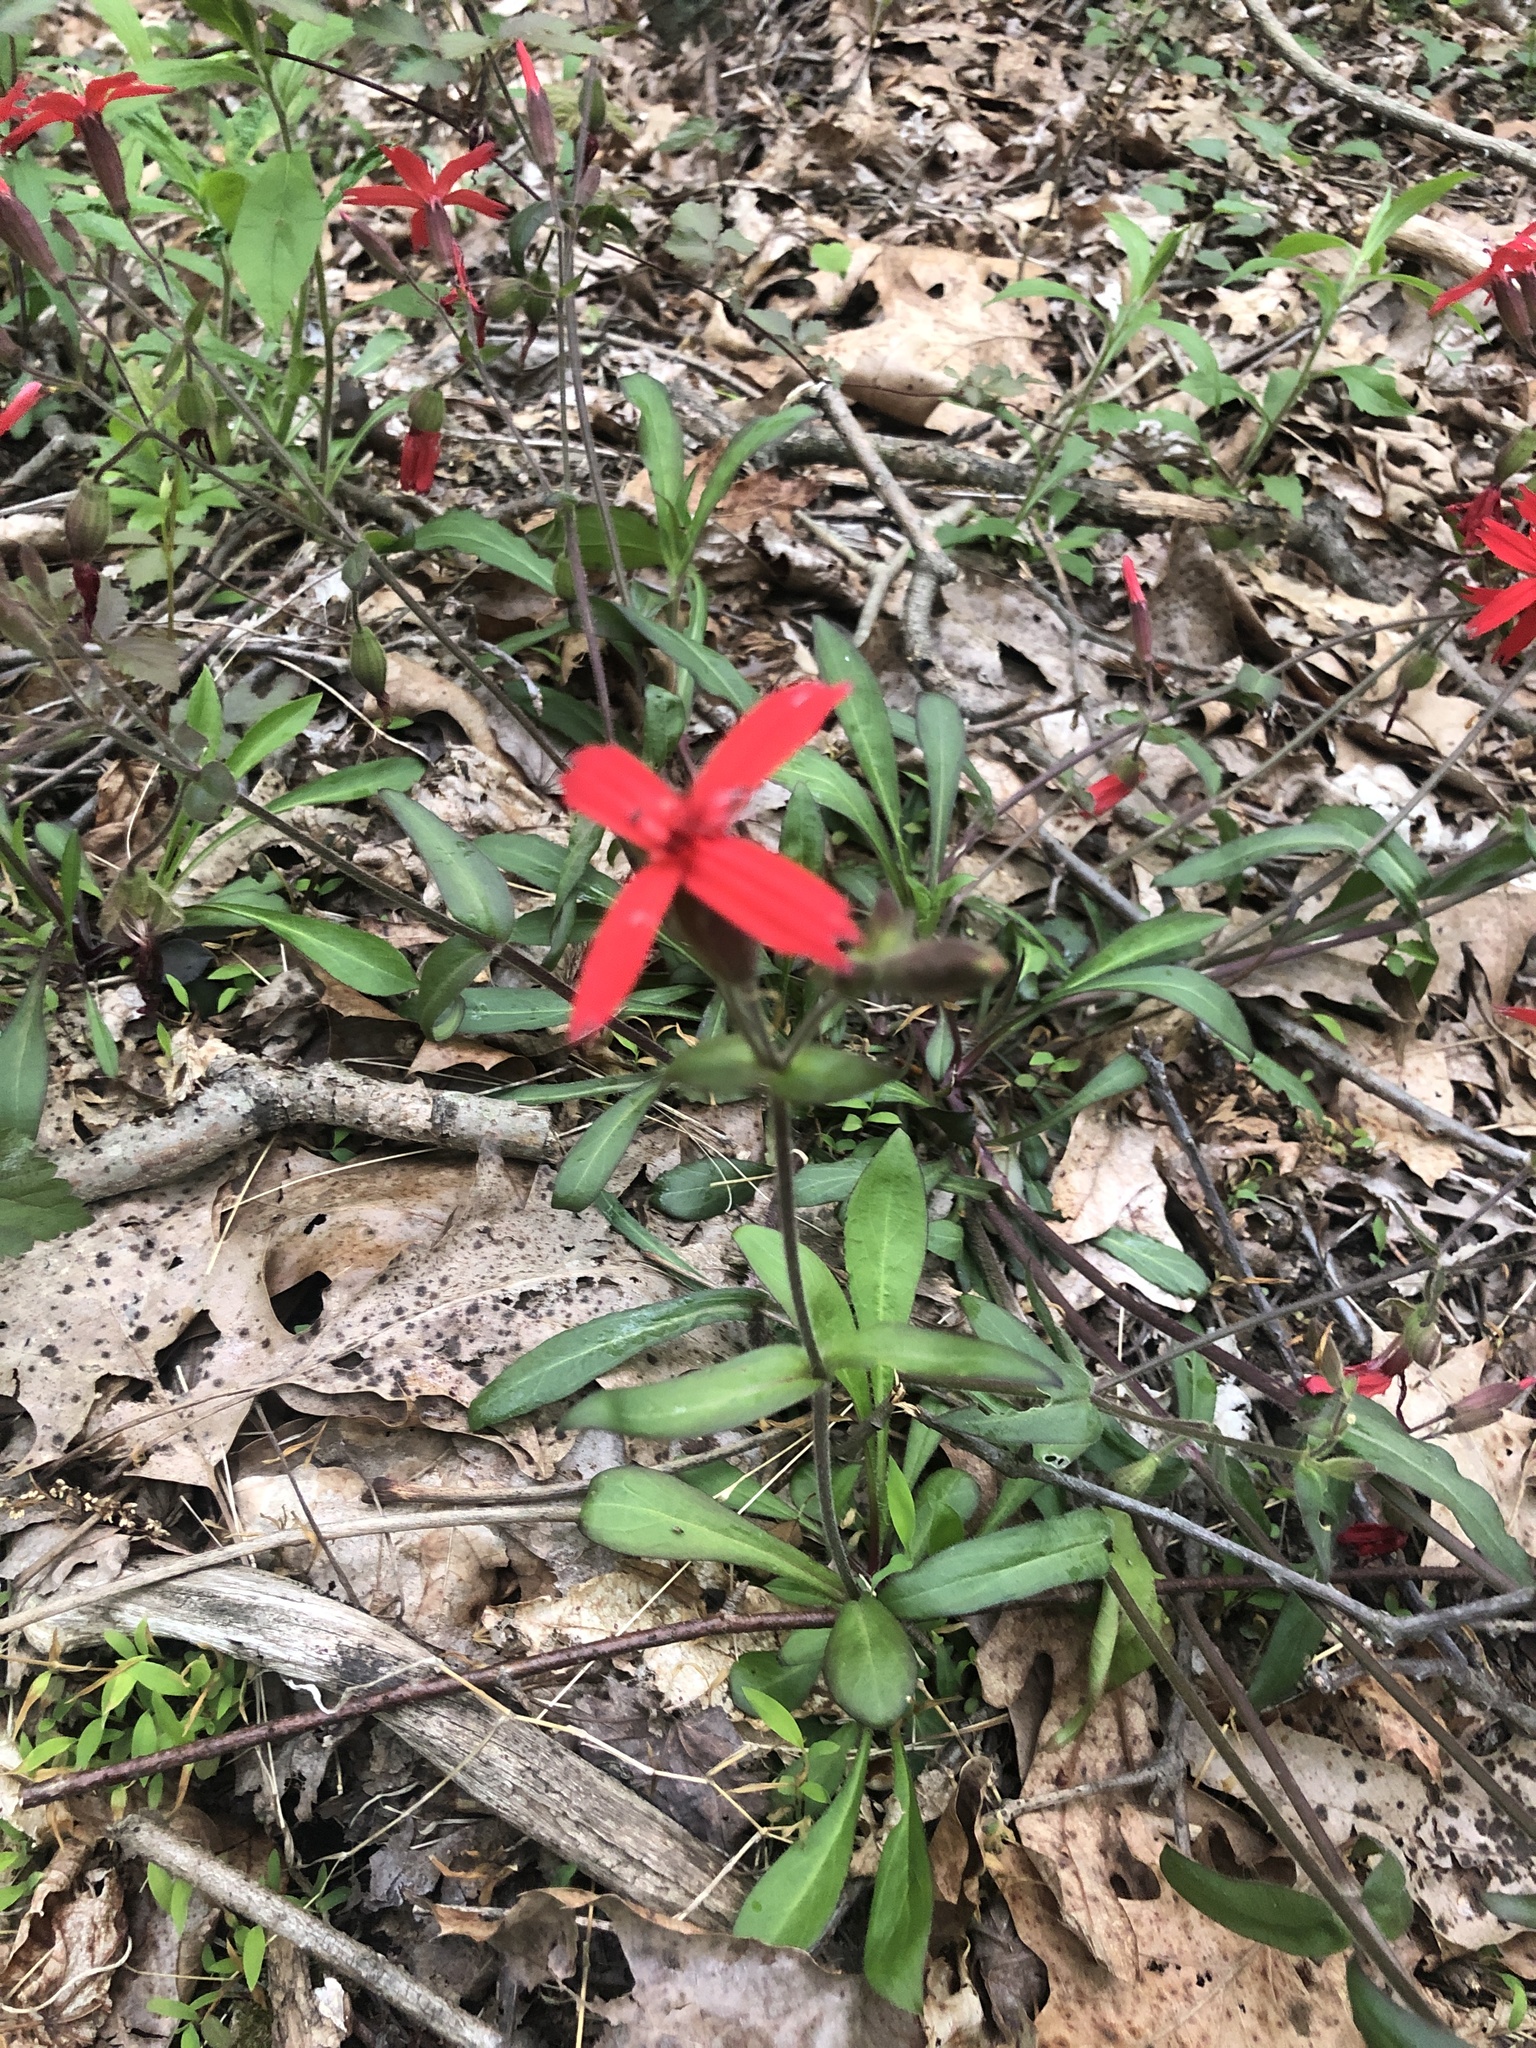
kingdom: Plantae
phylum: Tracheophyta
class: Magnoliopsida
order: Caryophyllales
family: Caryophyllaceae
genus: Silene
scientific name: Silene virginica
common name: Fire-pink
